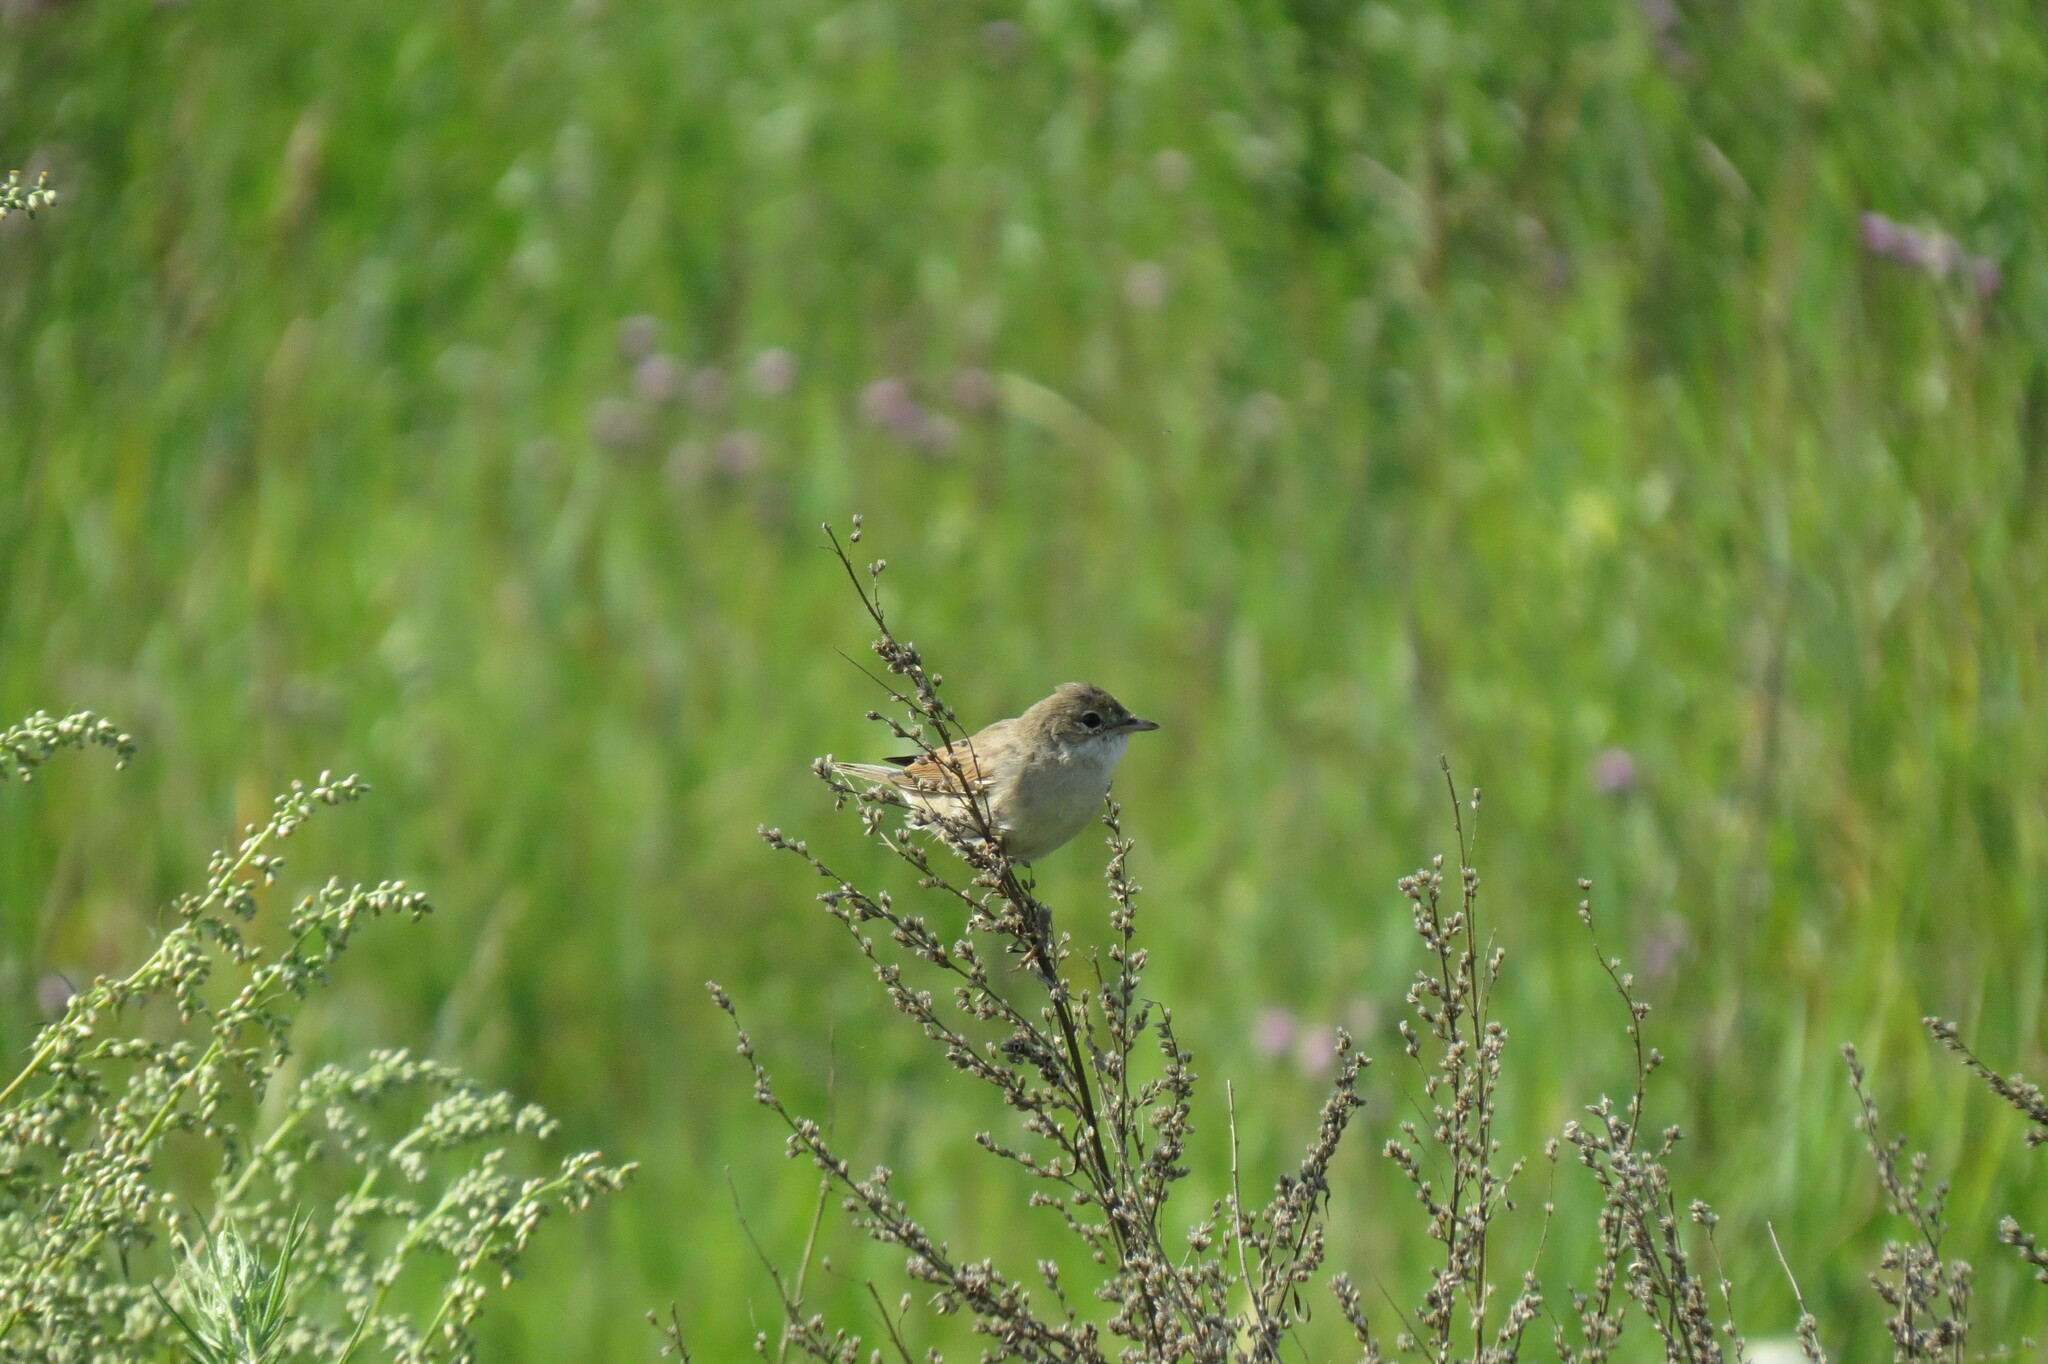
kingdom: Animalia
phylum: Chordata
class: Aves
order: Passeriformes
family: Sylviidae
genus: Sylvia
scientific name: Sylvia communis
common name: Common whitethroat
